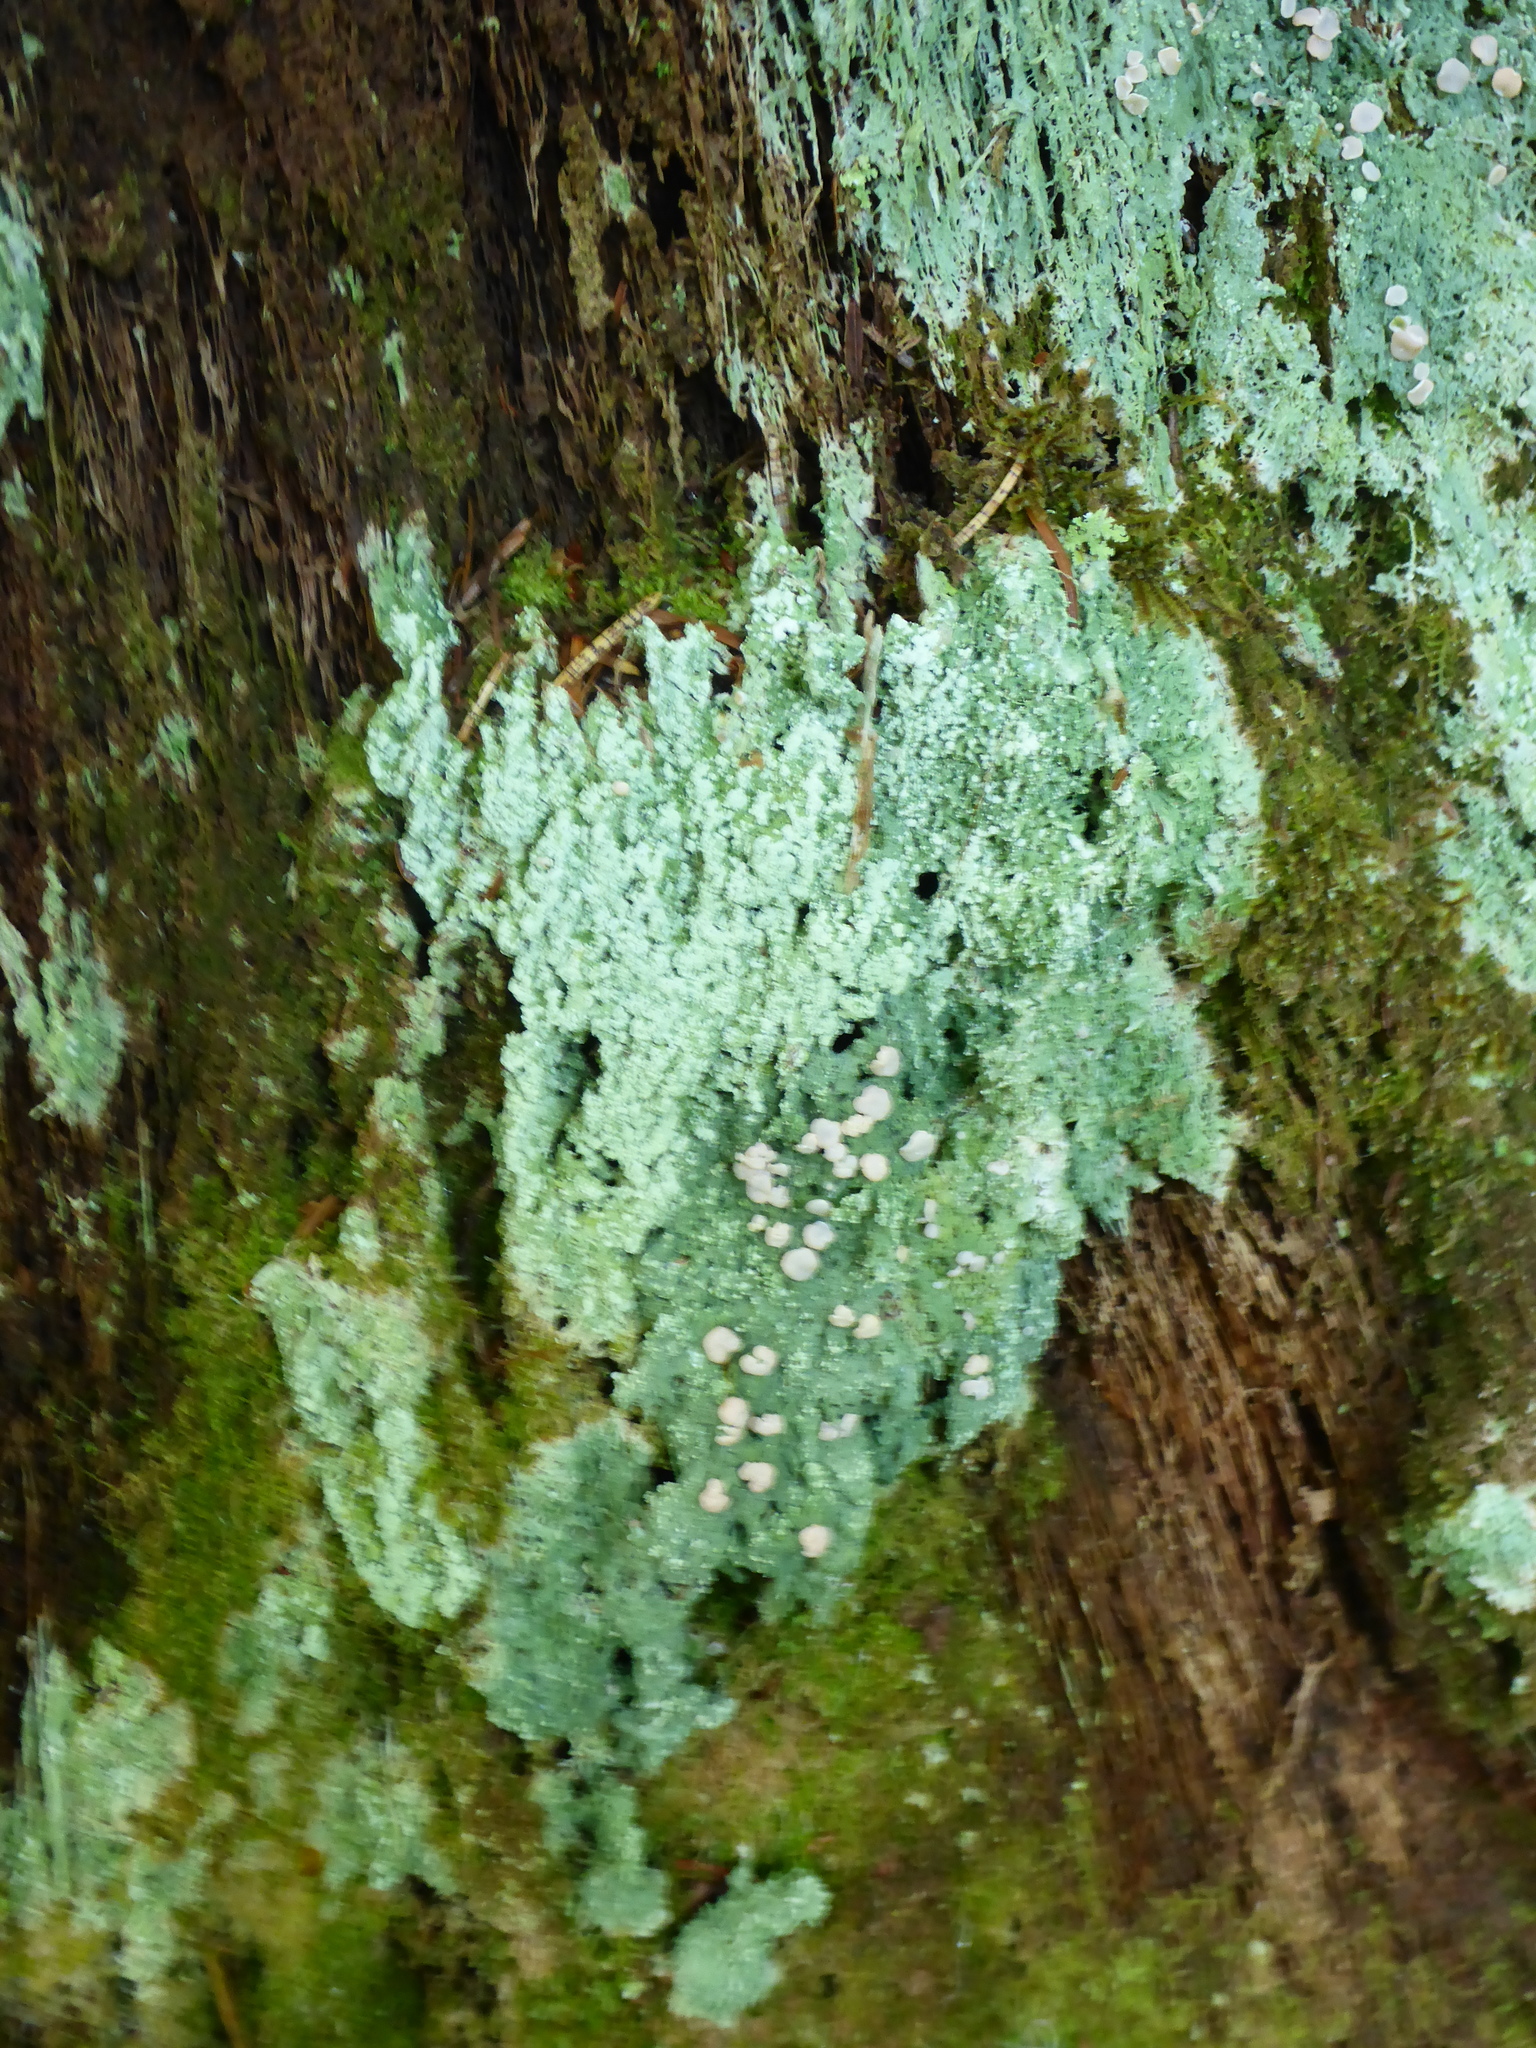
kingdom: Fungi
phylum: Ascomycota
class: Lecanoromycetes
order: Pertusariales
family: Icmadophilaceae
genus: Icmadophila
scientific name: Icmadophila ericetorum
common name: Candy lichen
